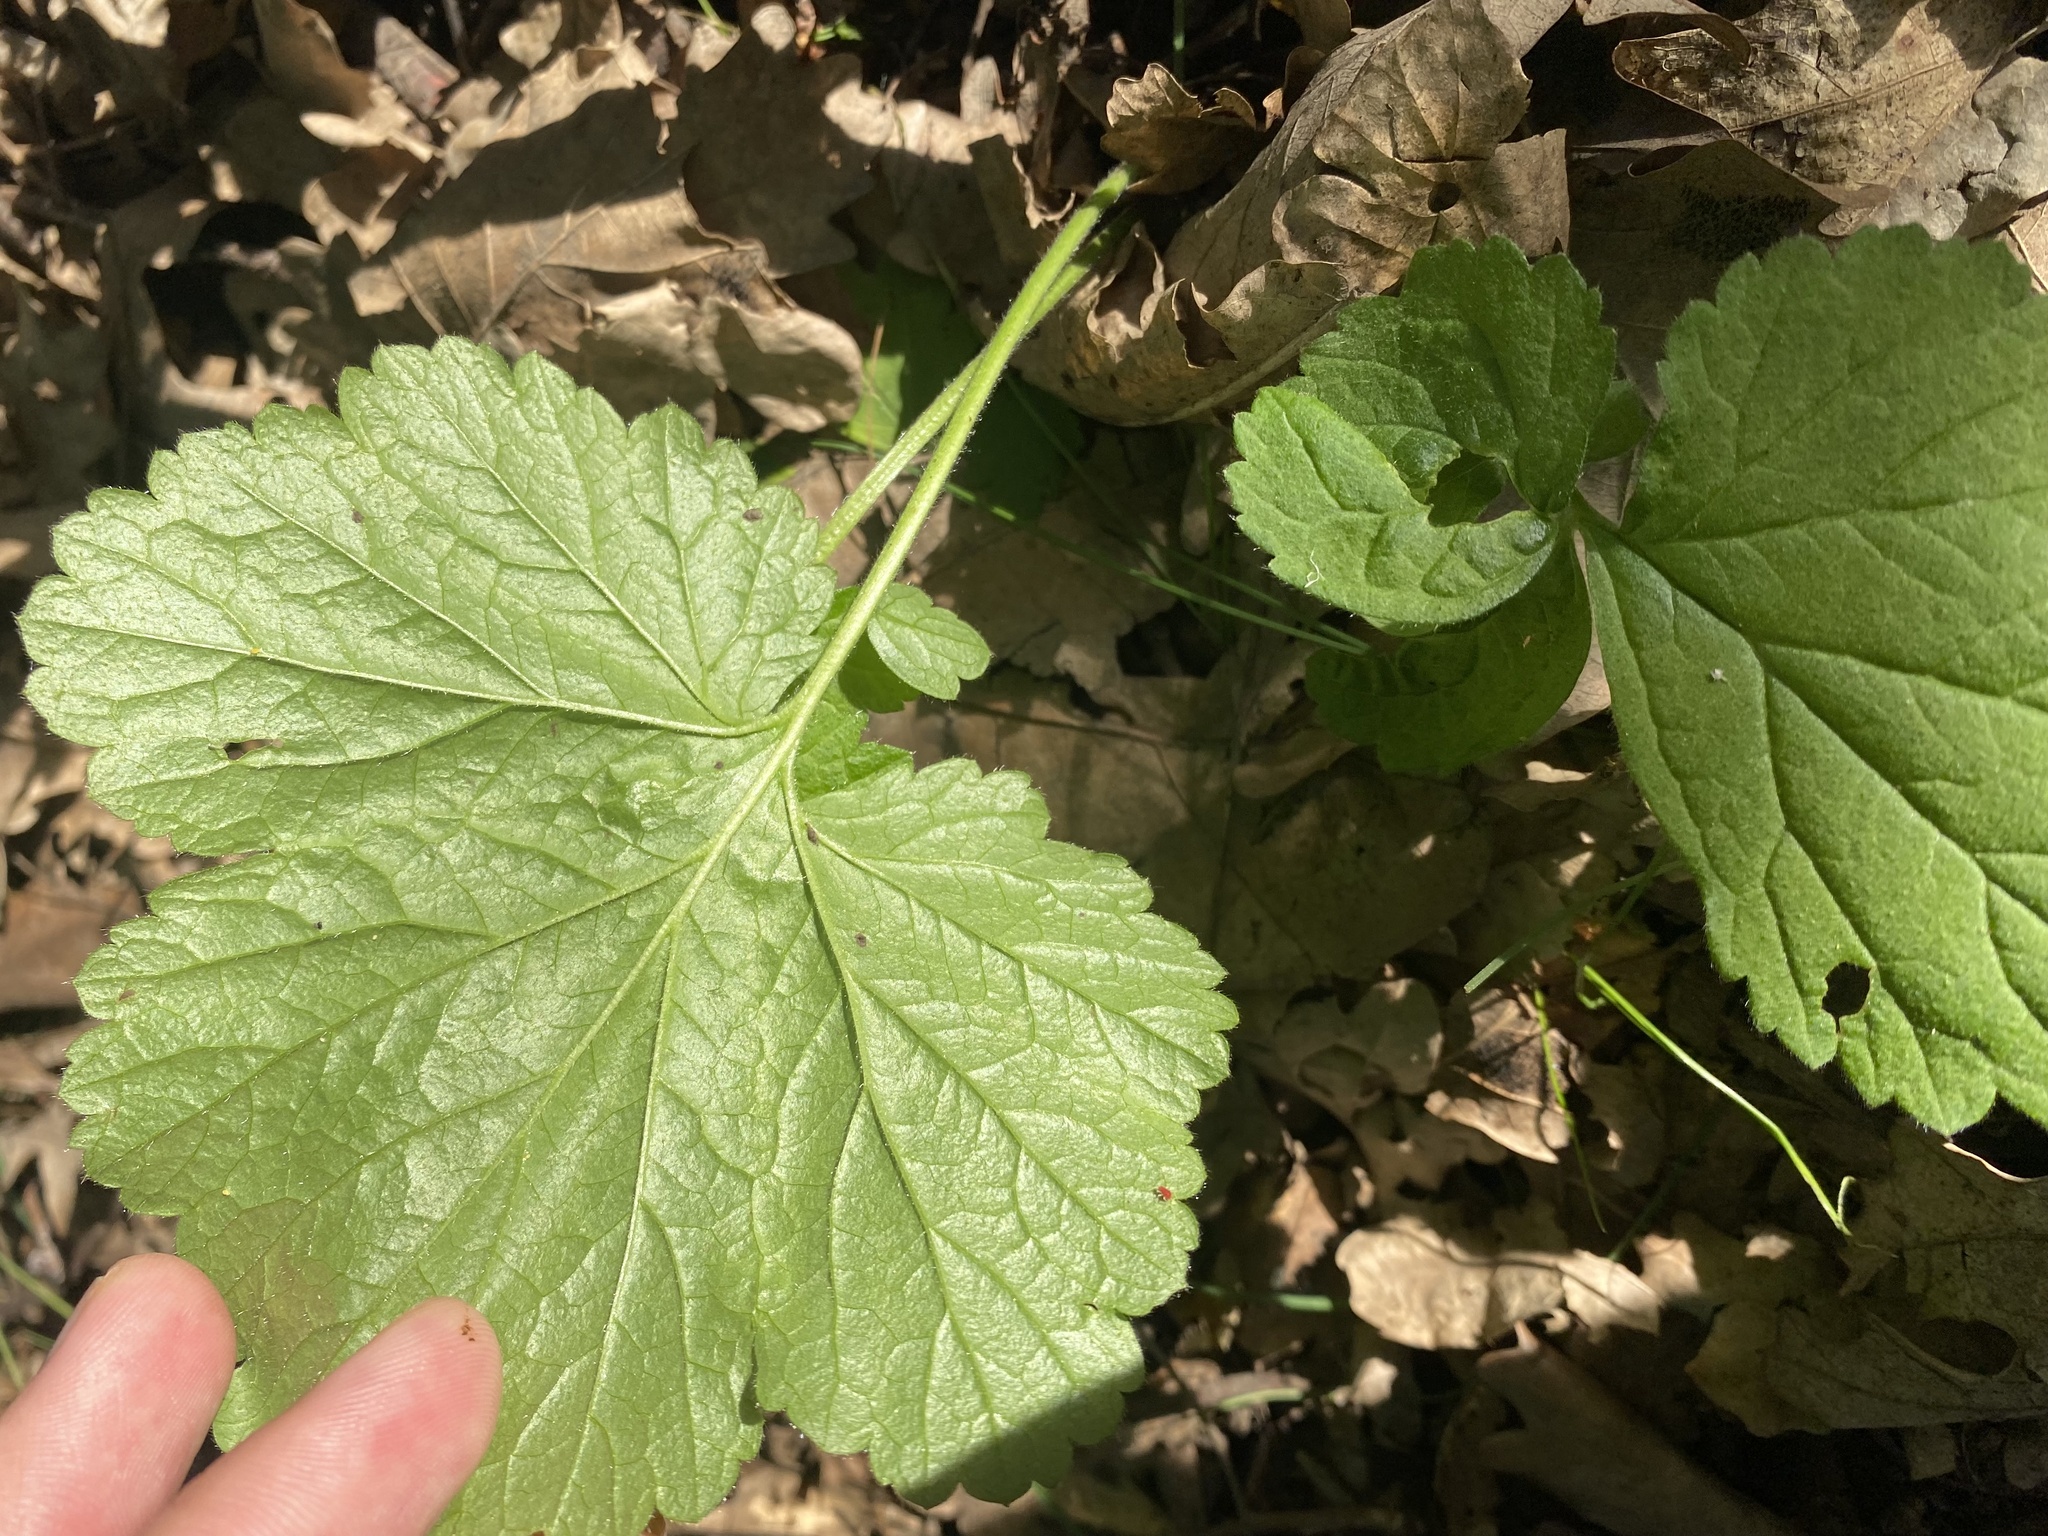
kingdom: Plantae
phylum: Tracheophyta
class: Magnoliopsida
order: Rosales
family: Rosaceae
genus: Geum
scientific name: Geum urbanum
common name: Wood avens
